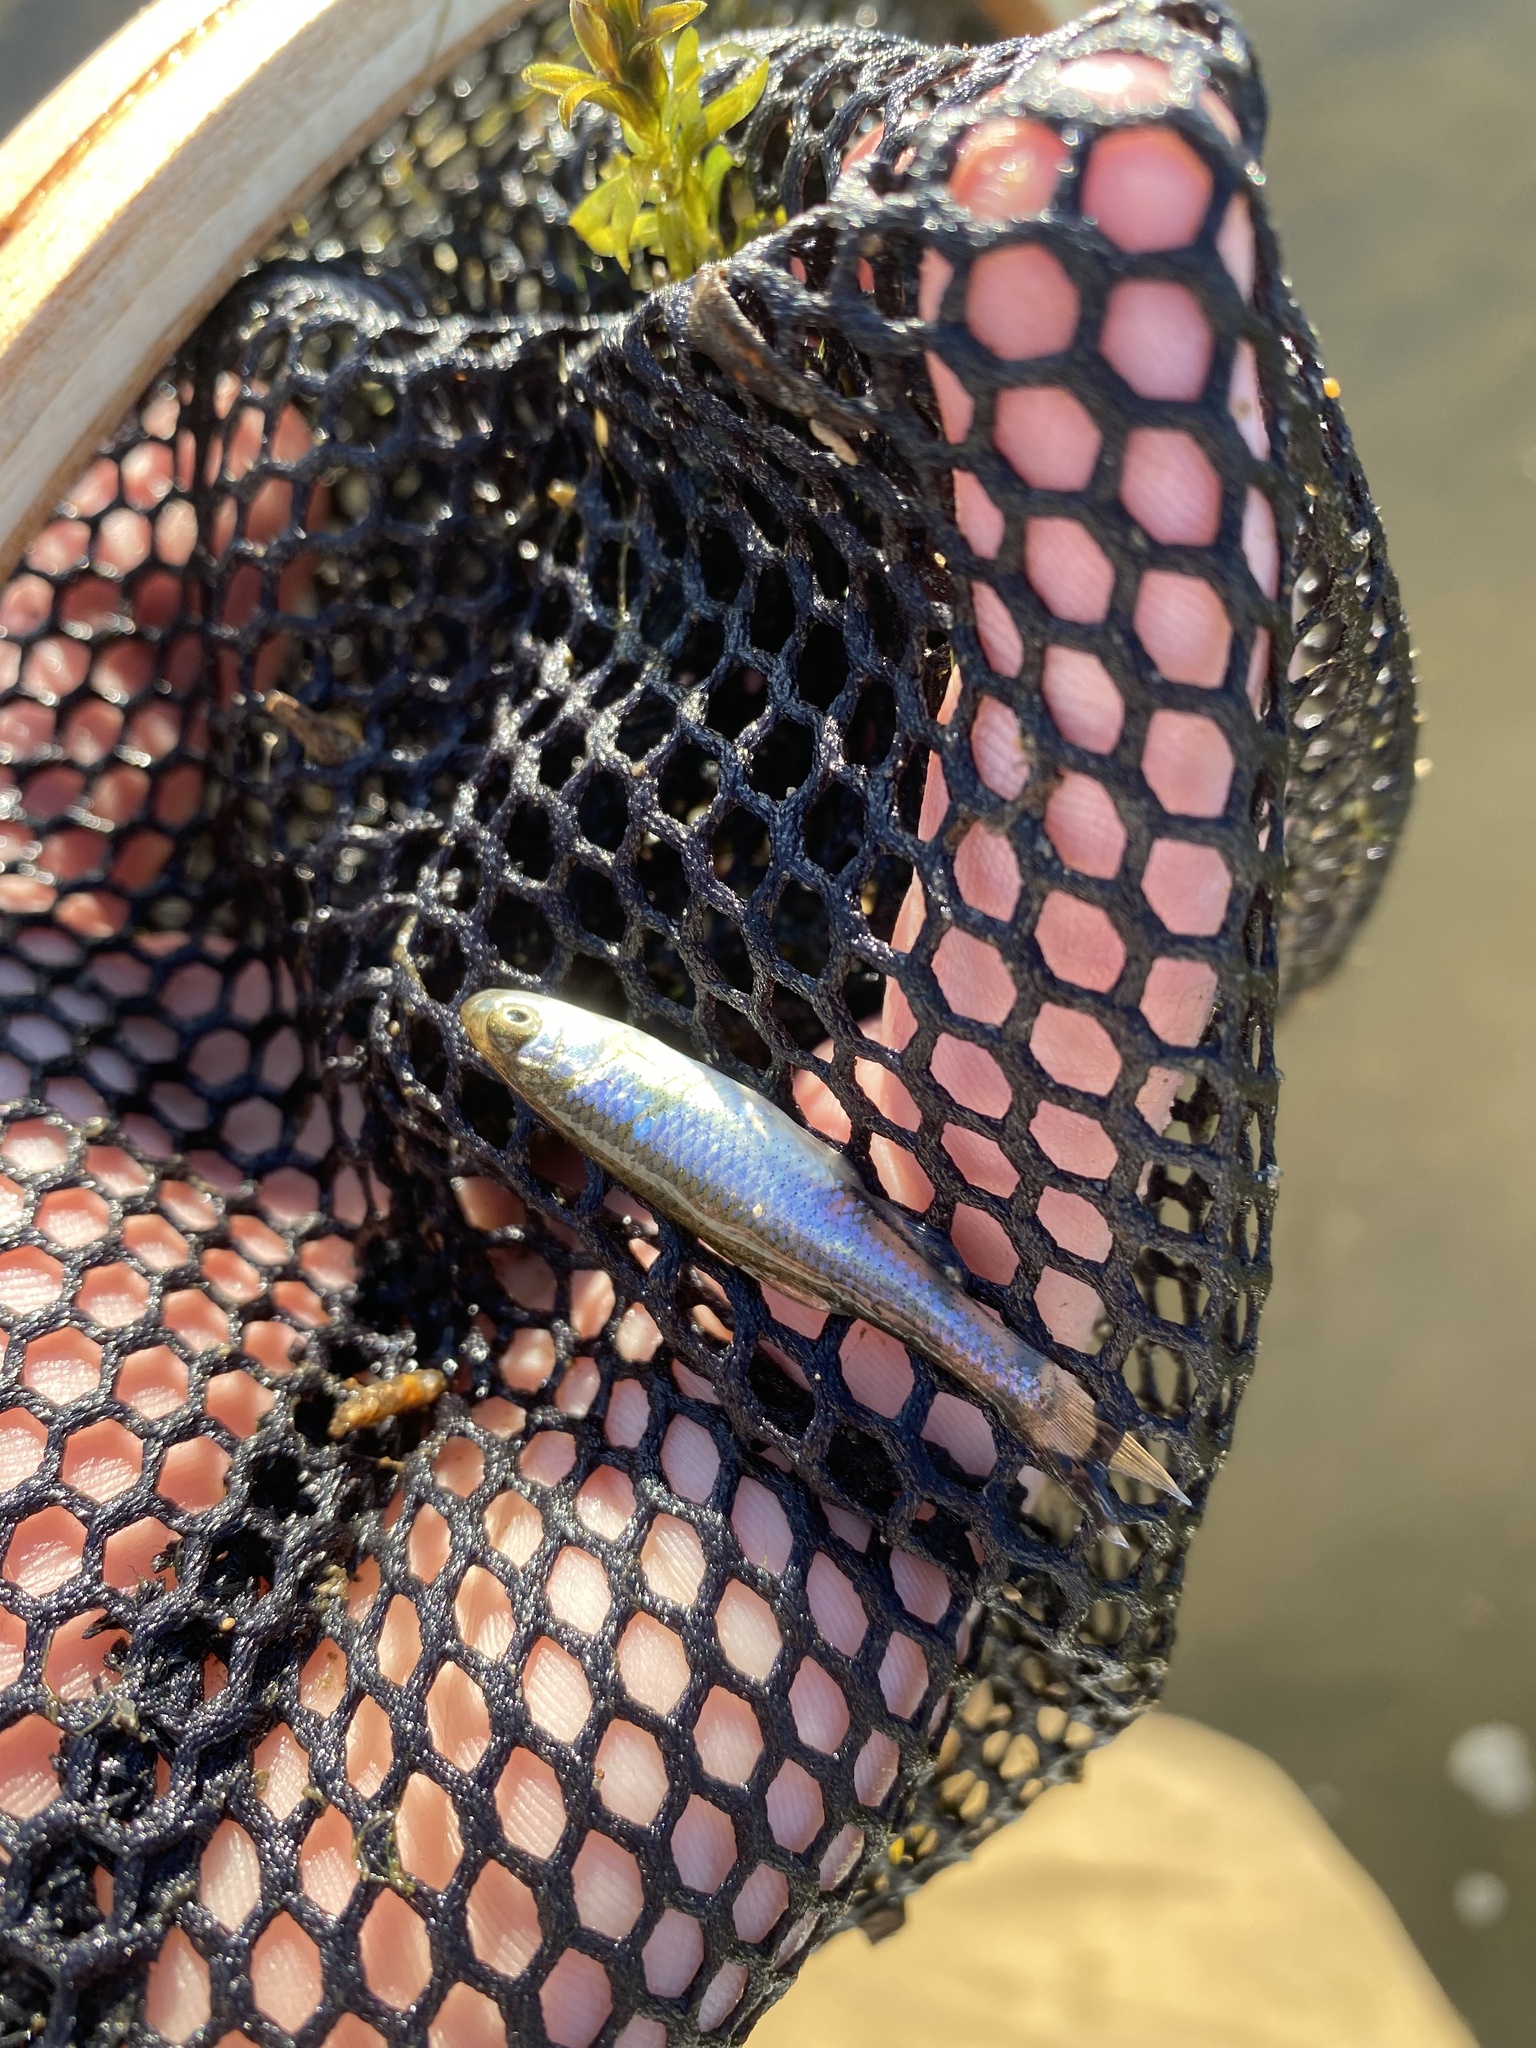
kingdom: Animalia
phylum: Chordata
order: Cypriniformes
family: Cyprinidae
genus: Cyprinella
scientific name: Cyprinella spiloptera
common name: Spotfin shiner
